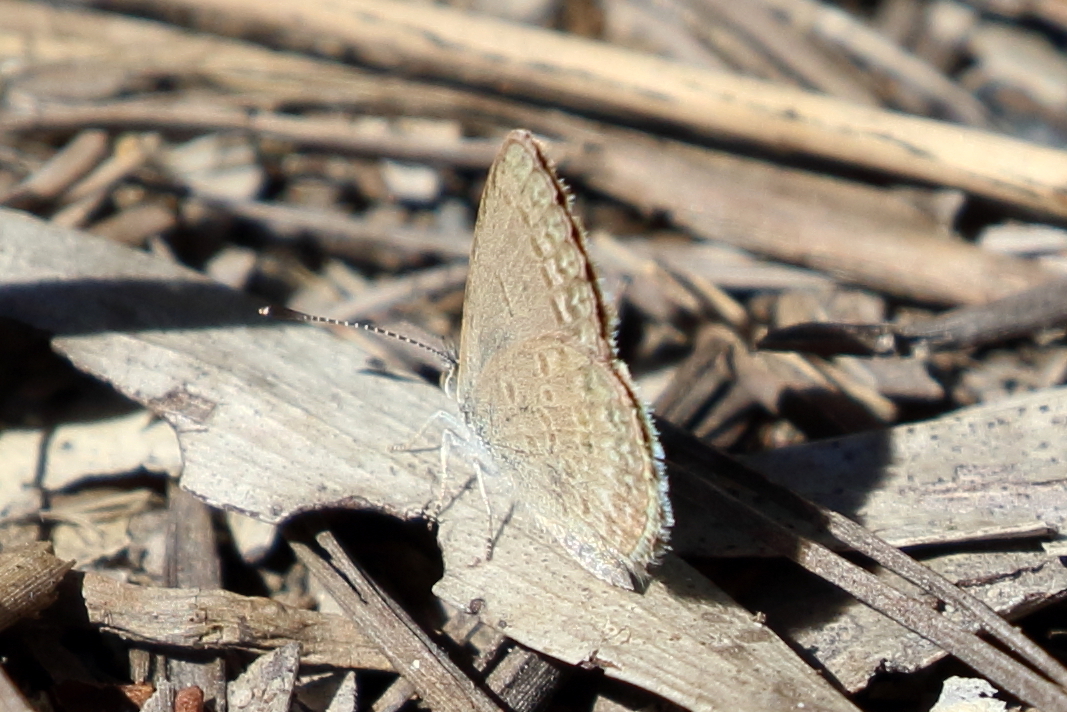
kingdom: Animalia
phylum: Arthropoda
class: Insecta
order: Lepidoptera
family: Lycaenidae
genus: Zizina
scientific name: Zizina labradus
